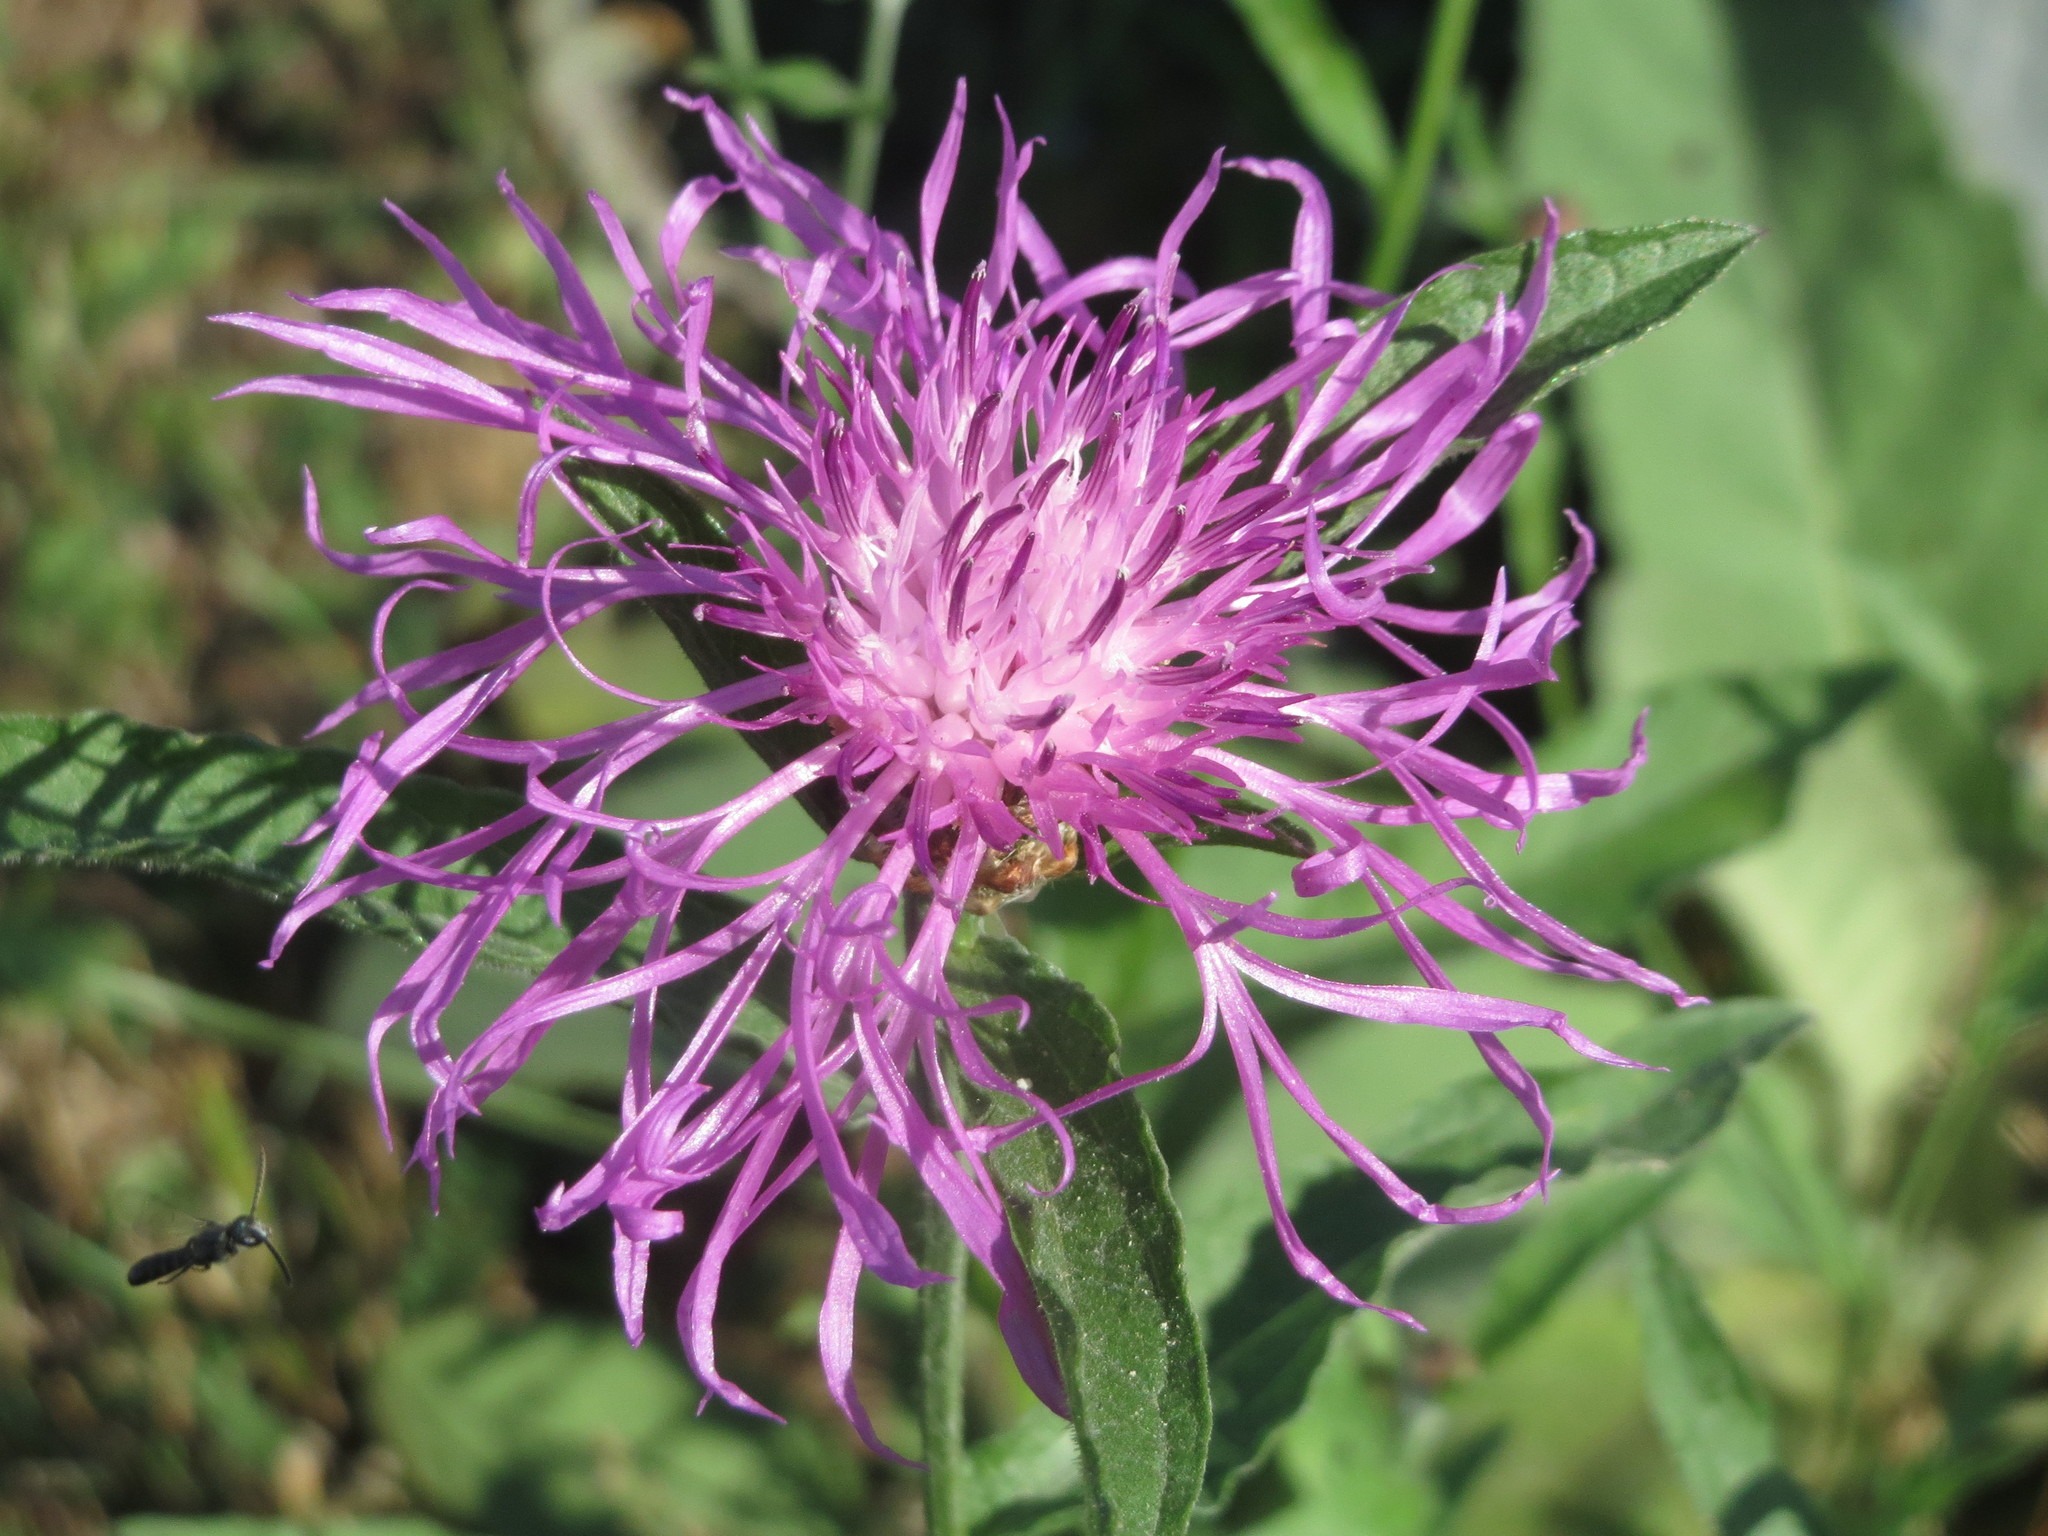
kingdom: Plantae
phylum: Tracheophyta
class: Magnoliopsida
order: Asterales
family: Asteraceae
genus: Centaurea
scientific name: Centaurea jacea
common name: Brown knapweed
